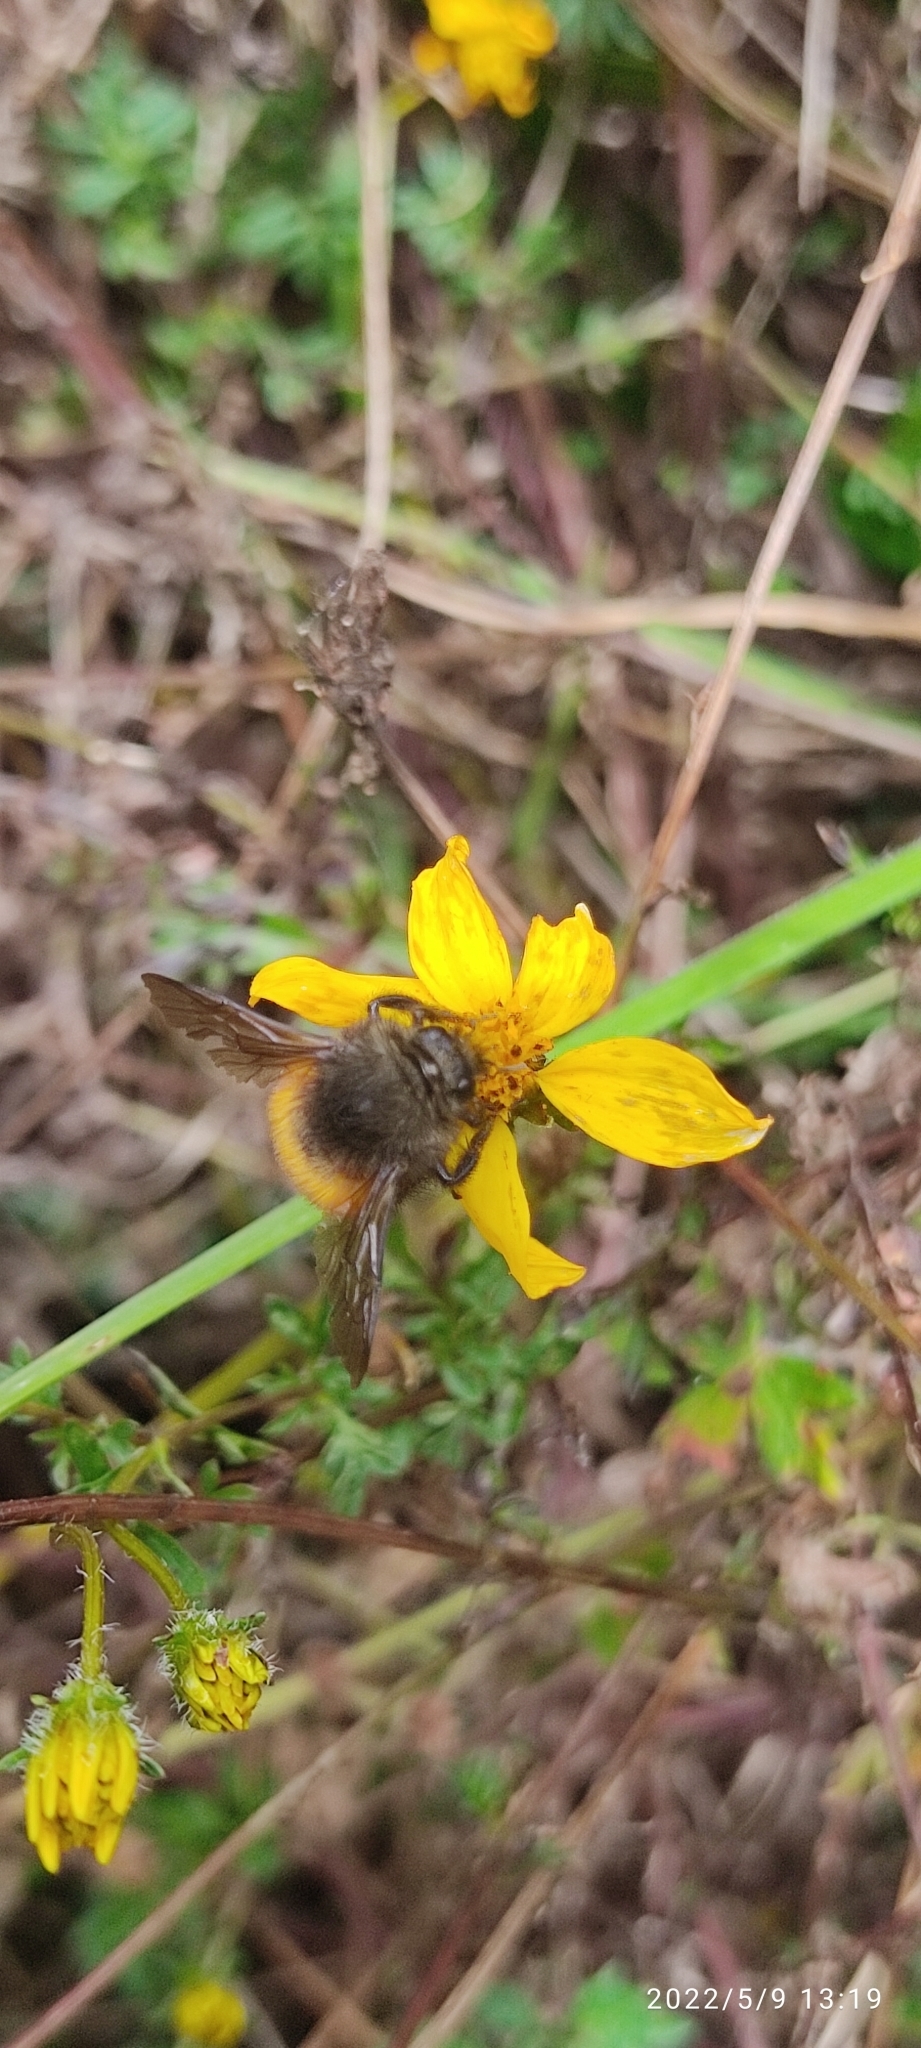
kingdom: Animalia
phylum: Arthropoda
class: Insecta
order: Hymenoptera
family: Apidae
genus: Bombus
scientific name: Bombus butteli
